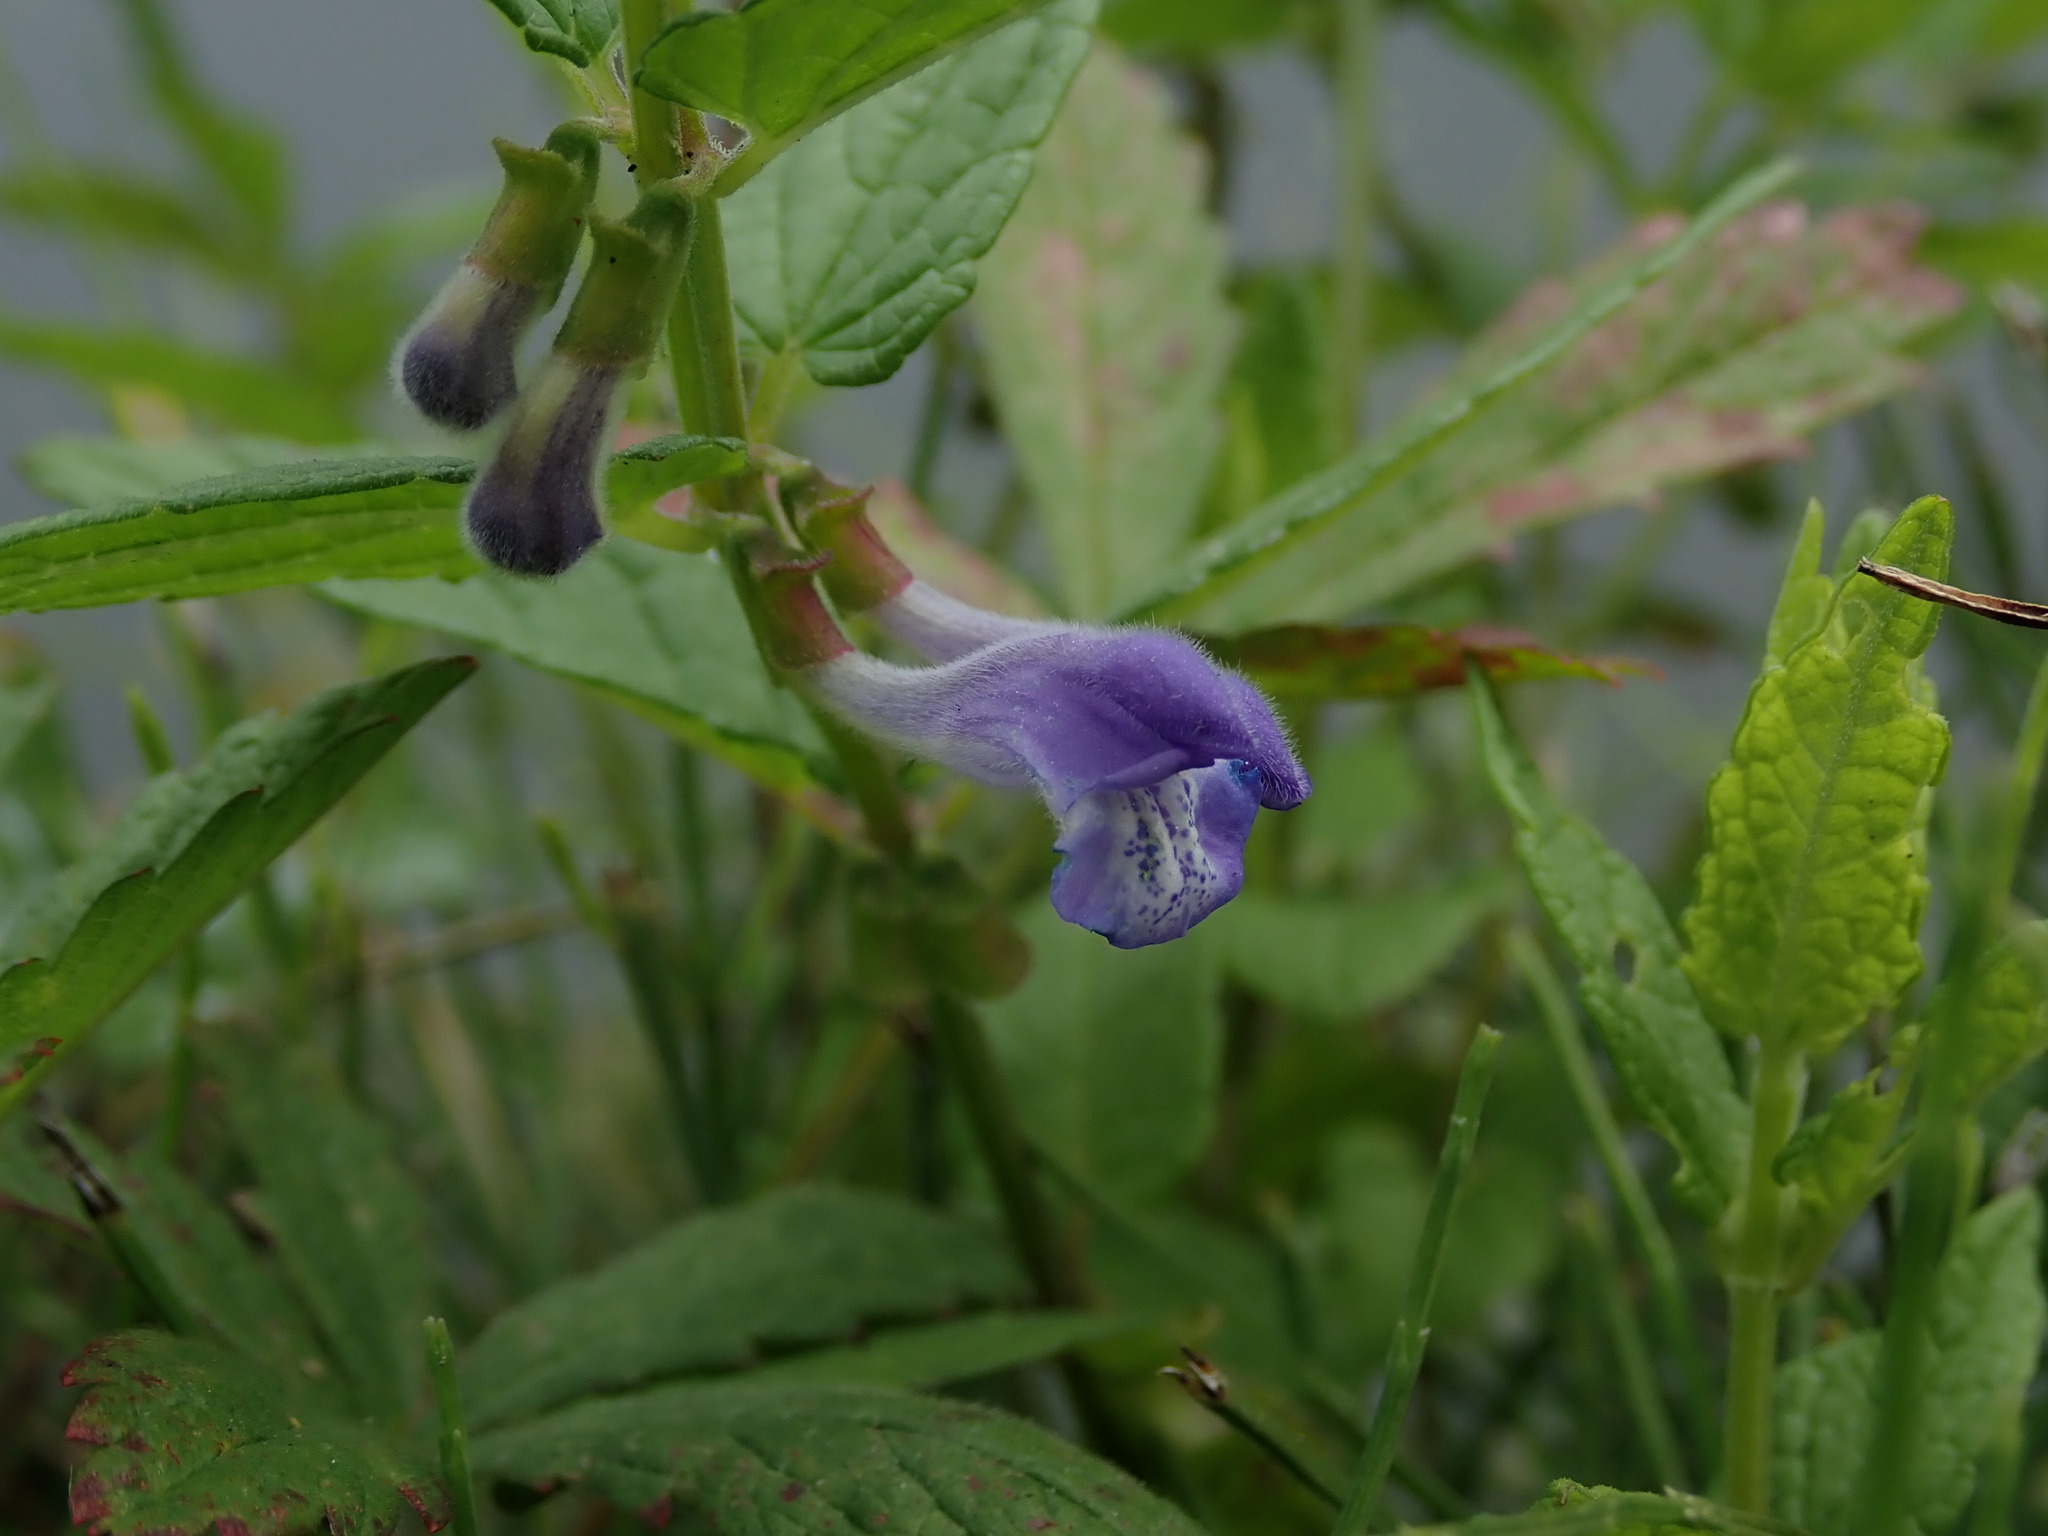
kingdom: Plantae
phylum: Tracheophyta
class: Magnoliopsida
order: Lamiales
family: Lamiaceae
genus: Scutellaria
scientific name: Scutellaria galericulata
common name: Skullcap
